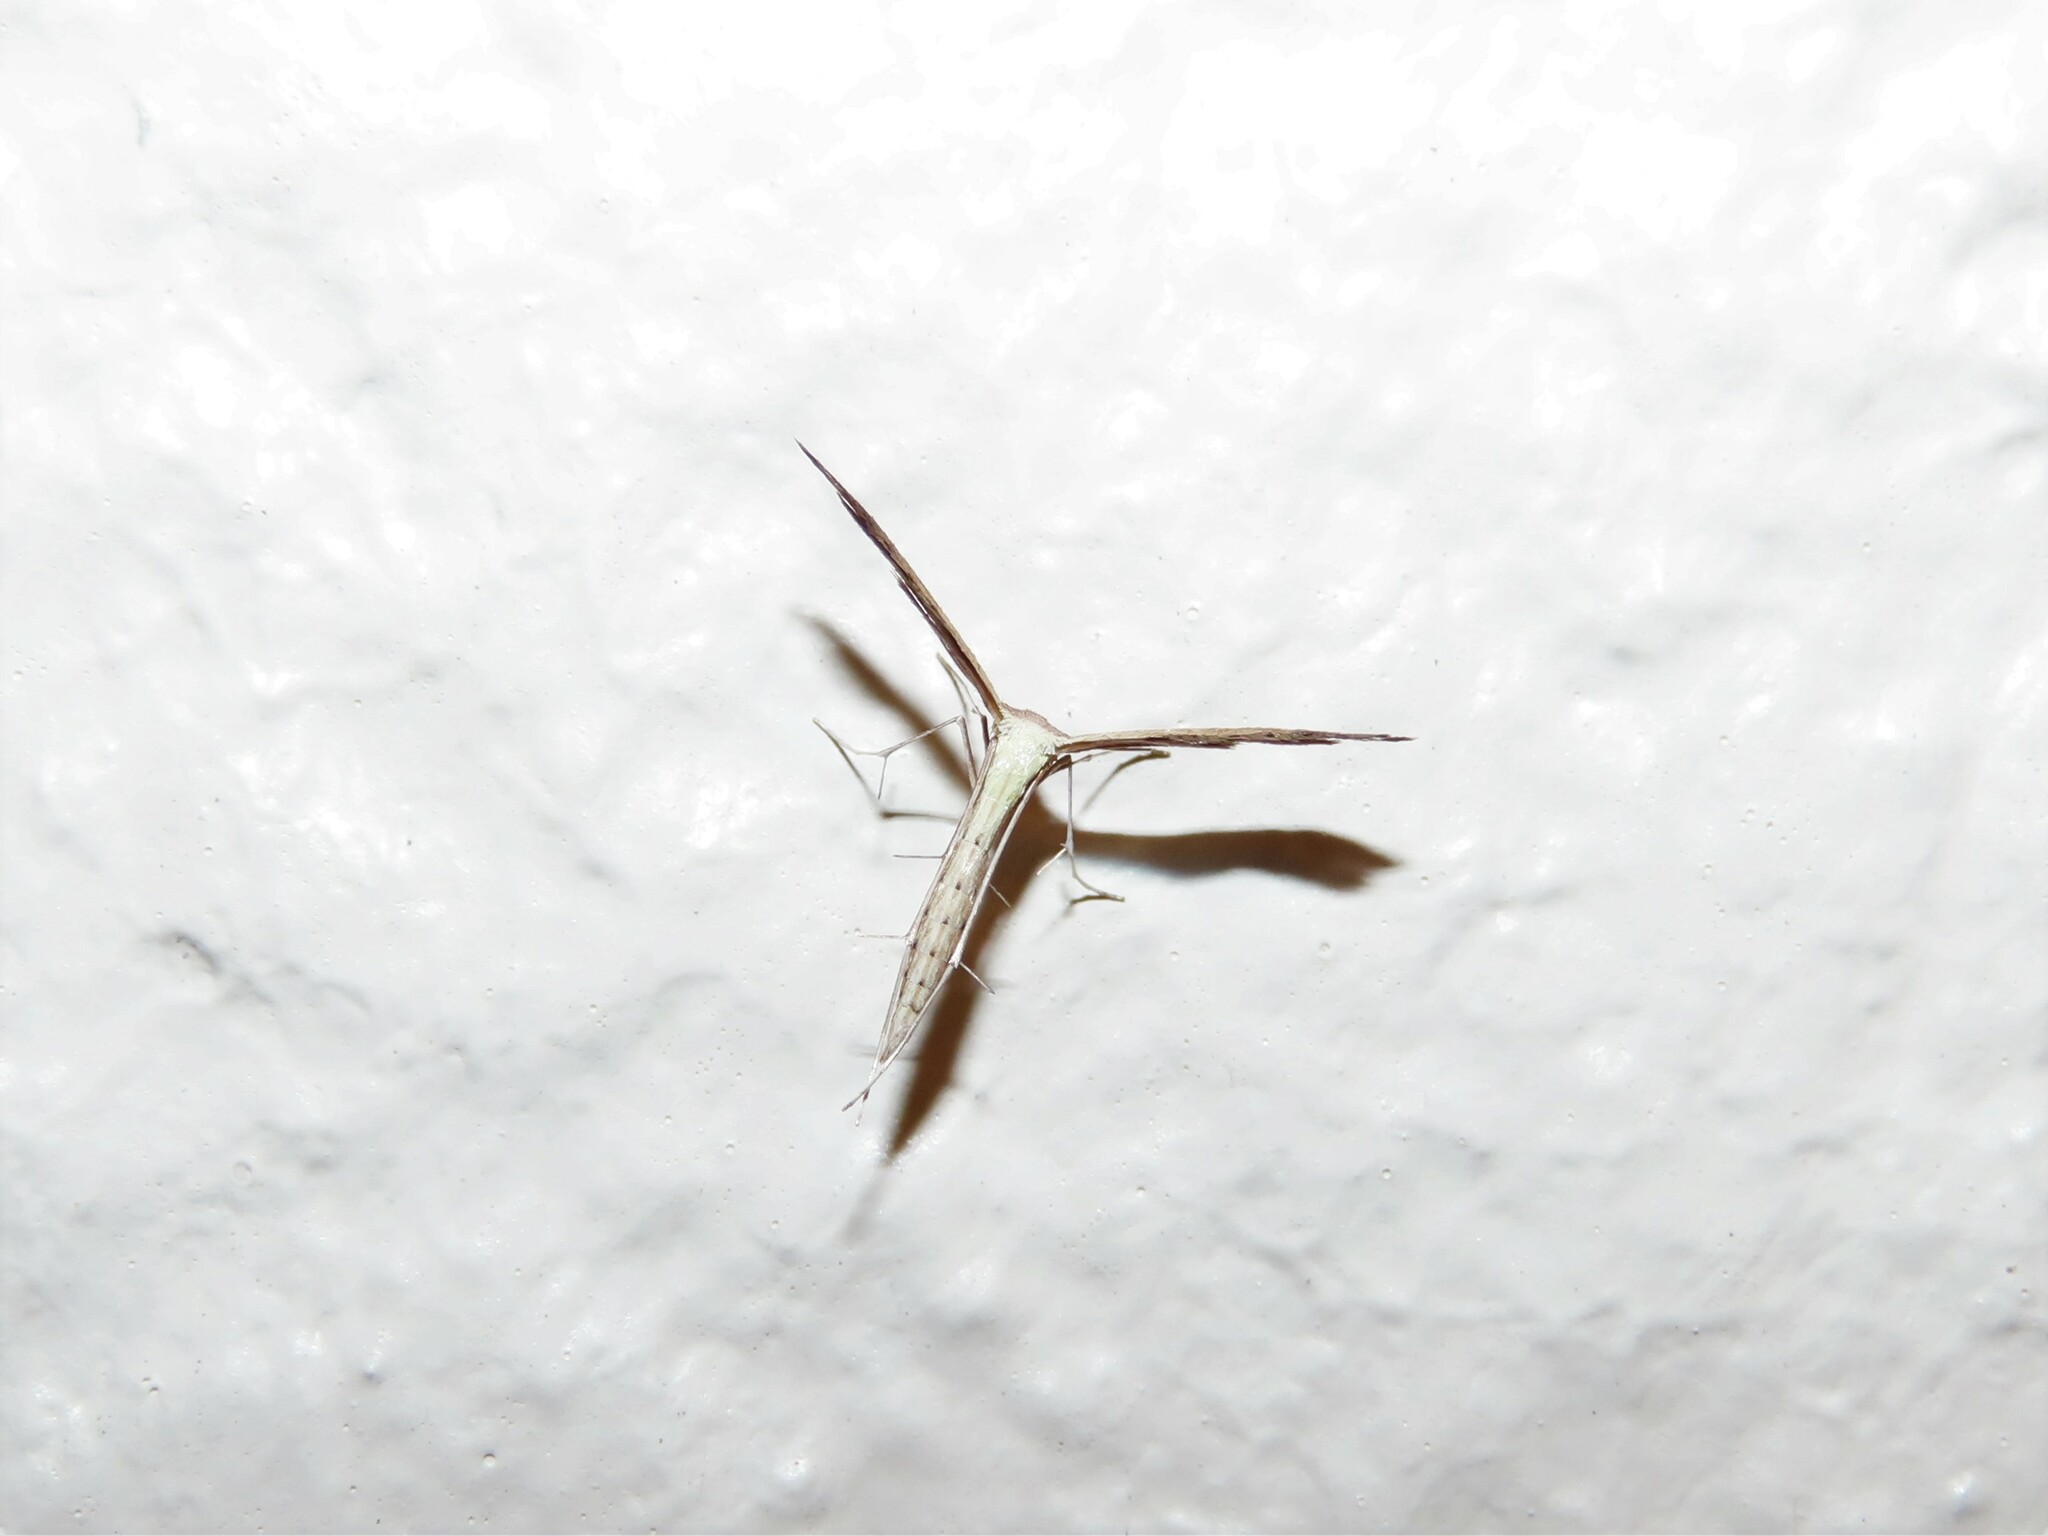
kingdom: Animalia
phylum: Arthropoda
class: Insecta
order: Lepidoptera
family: Pterophoridae
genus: Lioptilodes
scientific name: Lioptilodes albistriolatus
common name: Moth
